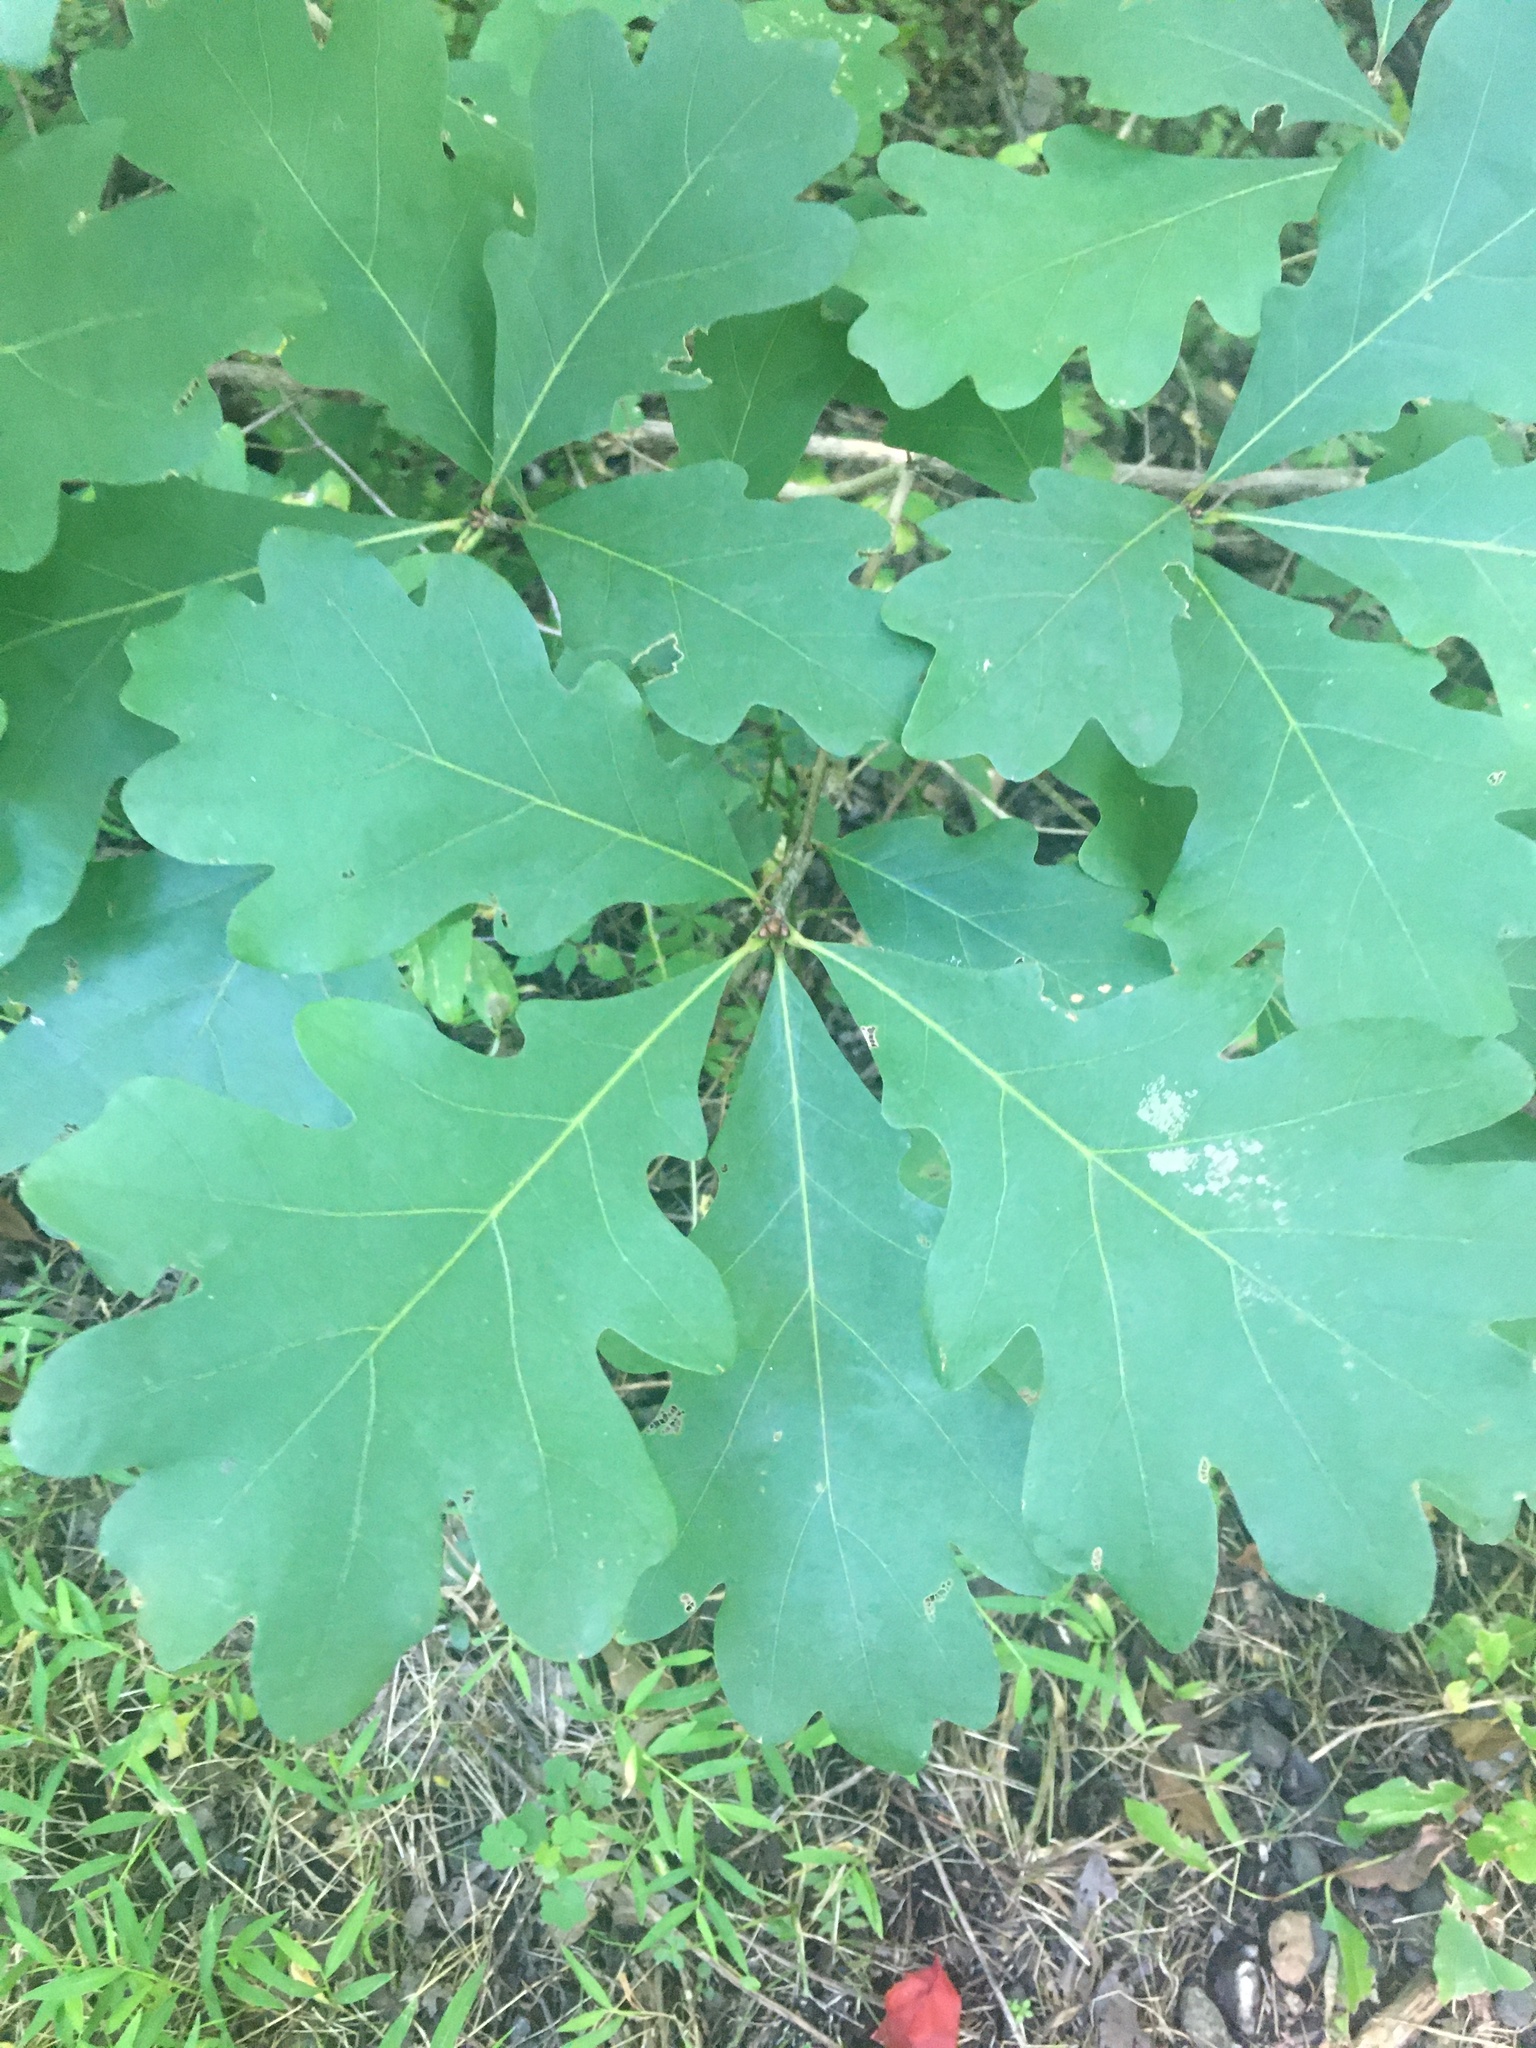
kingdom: Plantae
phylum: Tracheophyta
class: Magnoliopsida
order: Fagales
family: Fagaceae
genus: Quercus
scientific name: Quercus alba
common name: White oak
